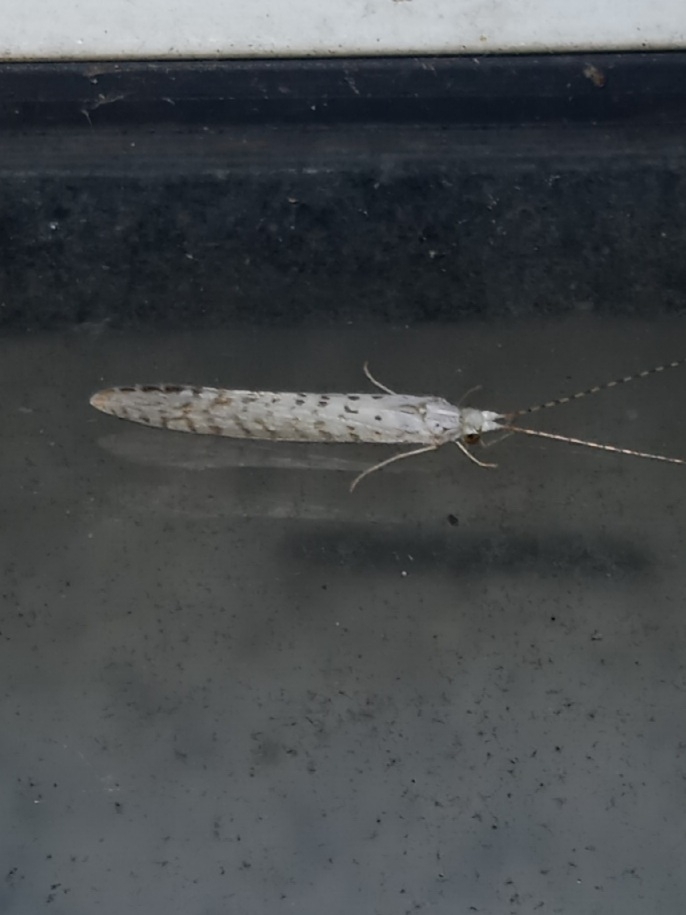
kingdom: Animalia
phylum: Arthropoda
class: Insecta
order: Trichoptera
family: Leptoceridae
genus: Nectopsyche
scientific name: Nectopsyche candida
